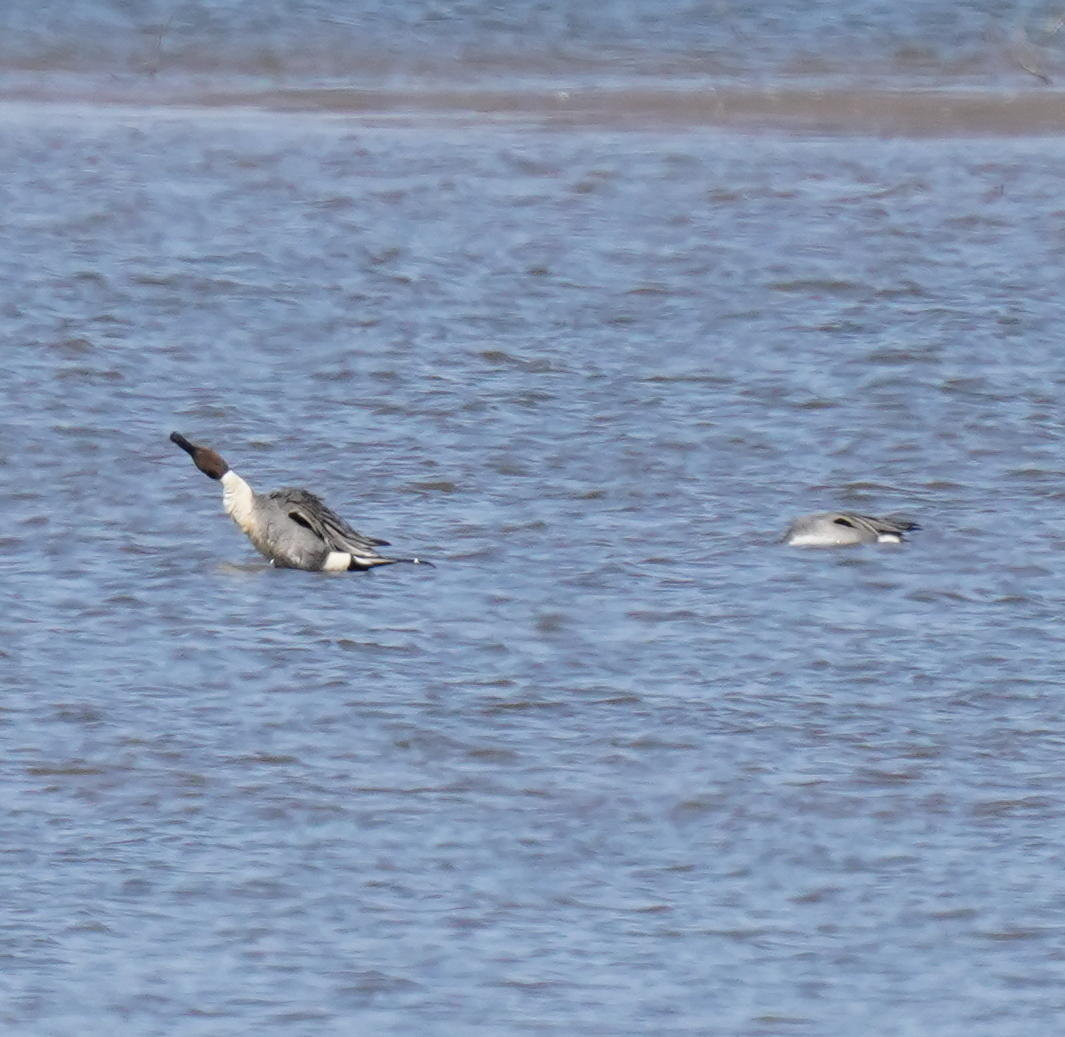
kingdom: Animalia
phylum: Chordata
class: Aves
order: Anseriformes
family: Anatidae
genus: Anas
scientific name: Anas acuta
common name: Northern pintail
